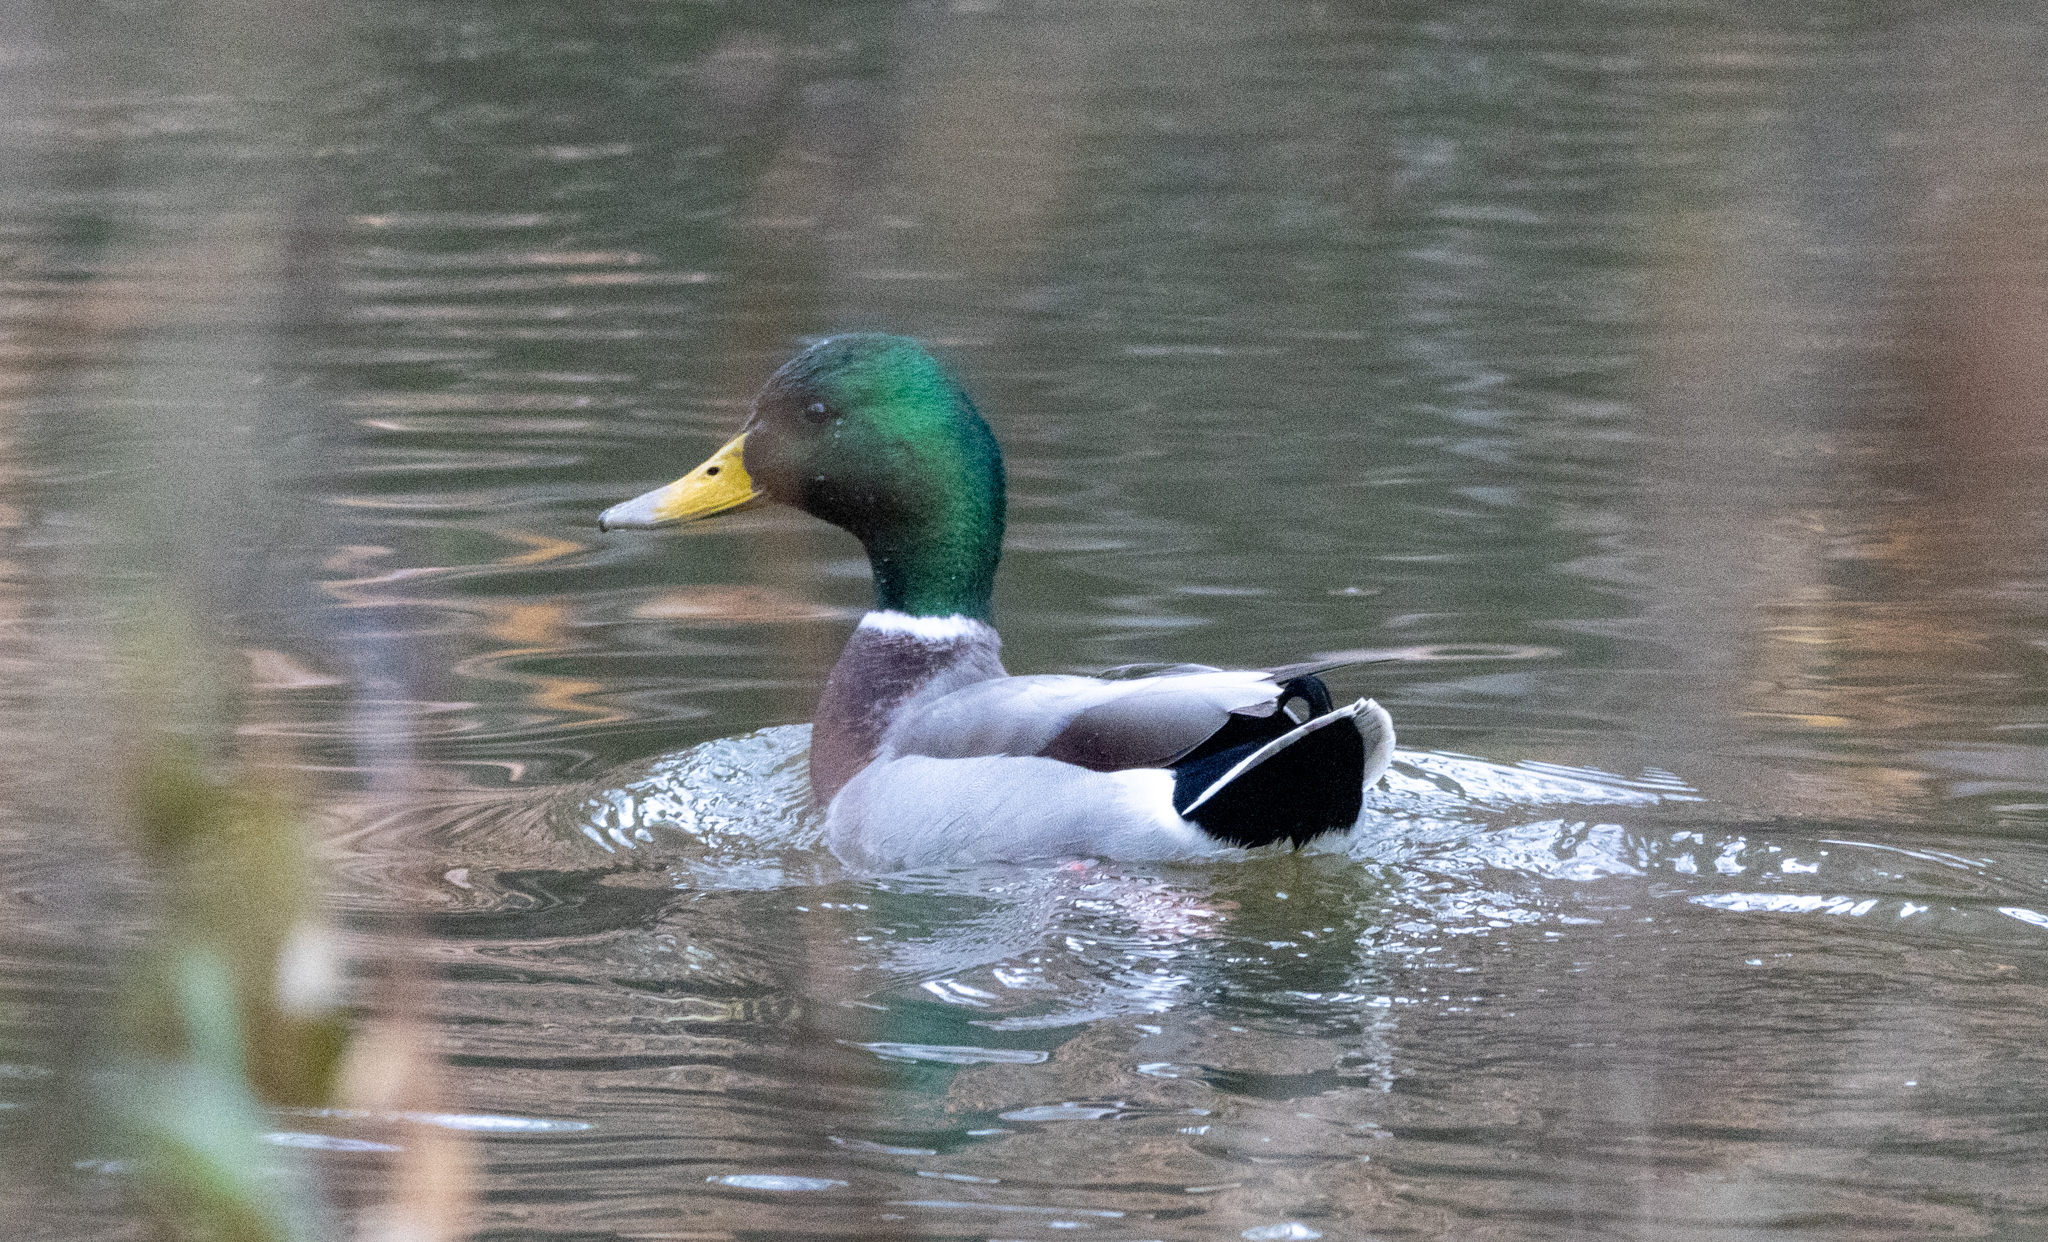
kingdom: Animalia
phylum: Chordata
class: Aves
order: Anseriformes
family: Anatidae
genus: Anas
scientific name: Anas platyrhynchos
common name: Mallard
